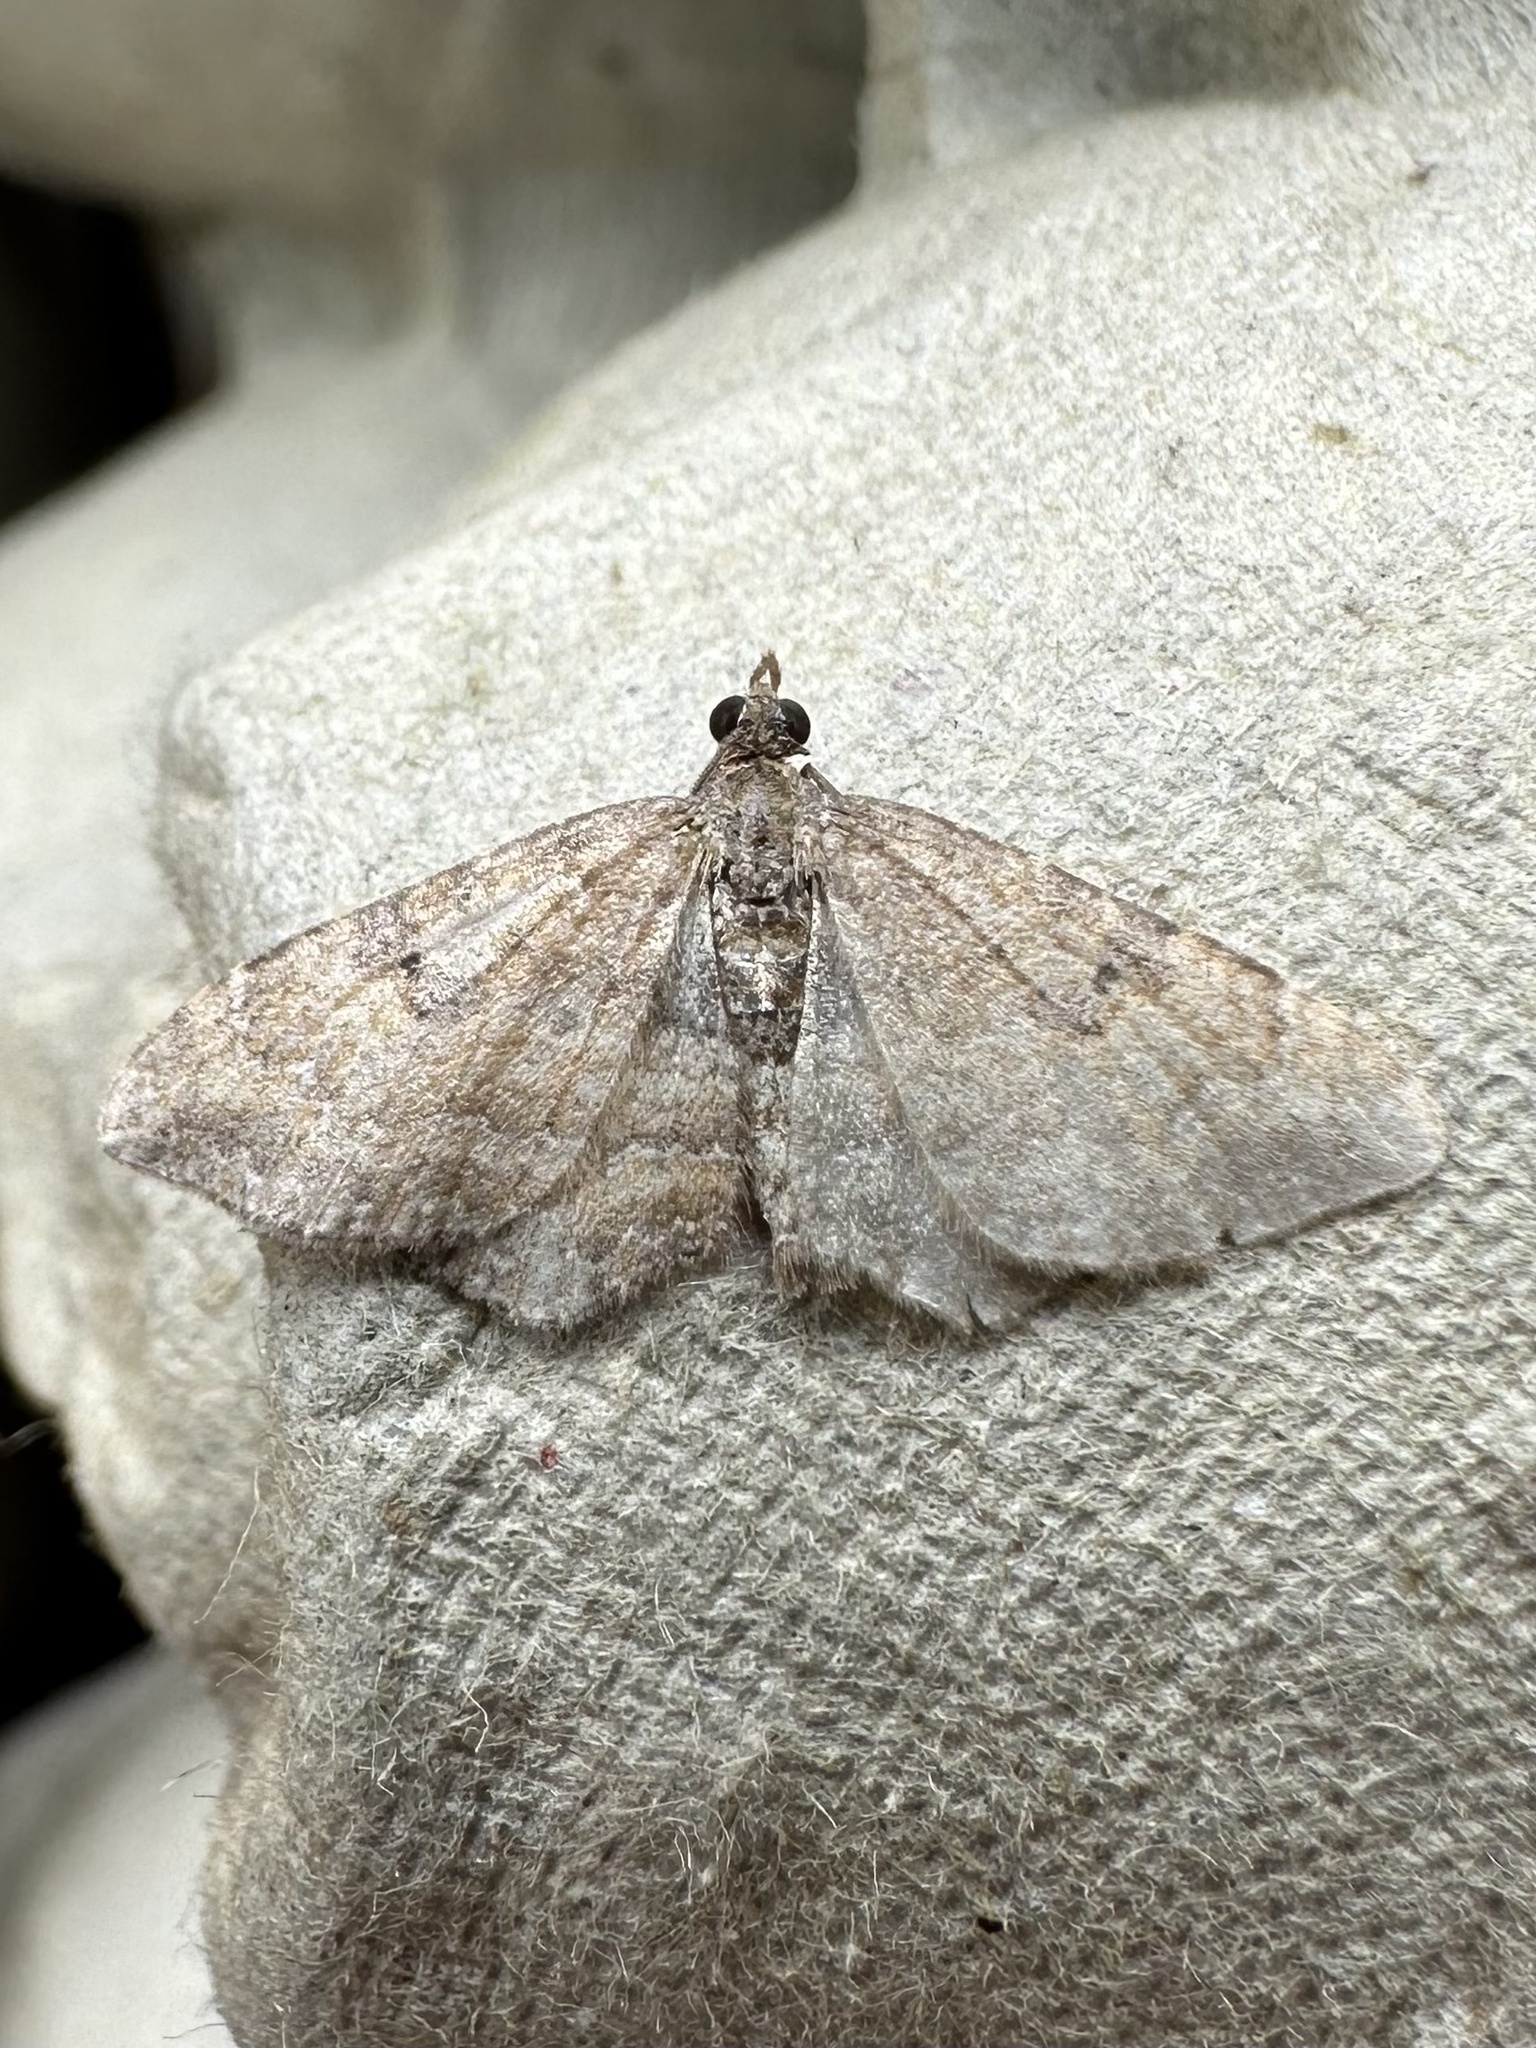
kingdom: Animalia
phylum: Arthropoda
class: Insecta
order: Lepidoptera
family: Geometridae
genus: Orthonama
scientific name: Orthonama obstipata
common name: The gem
